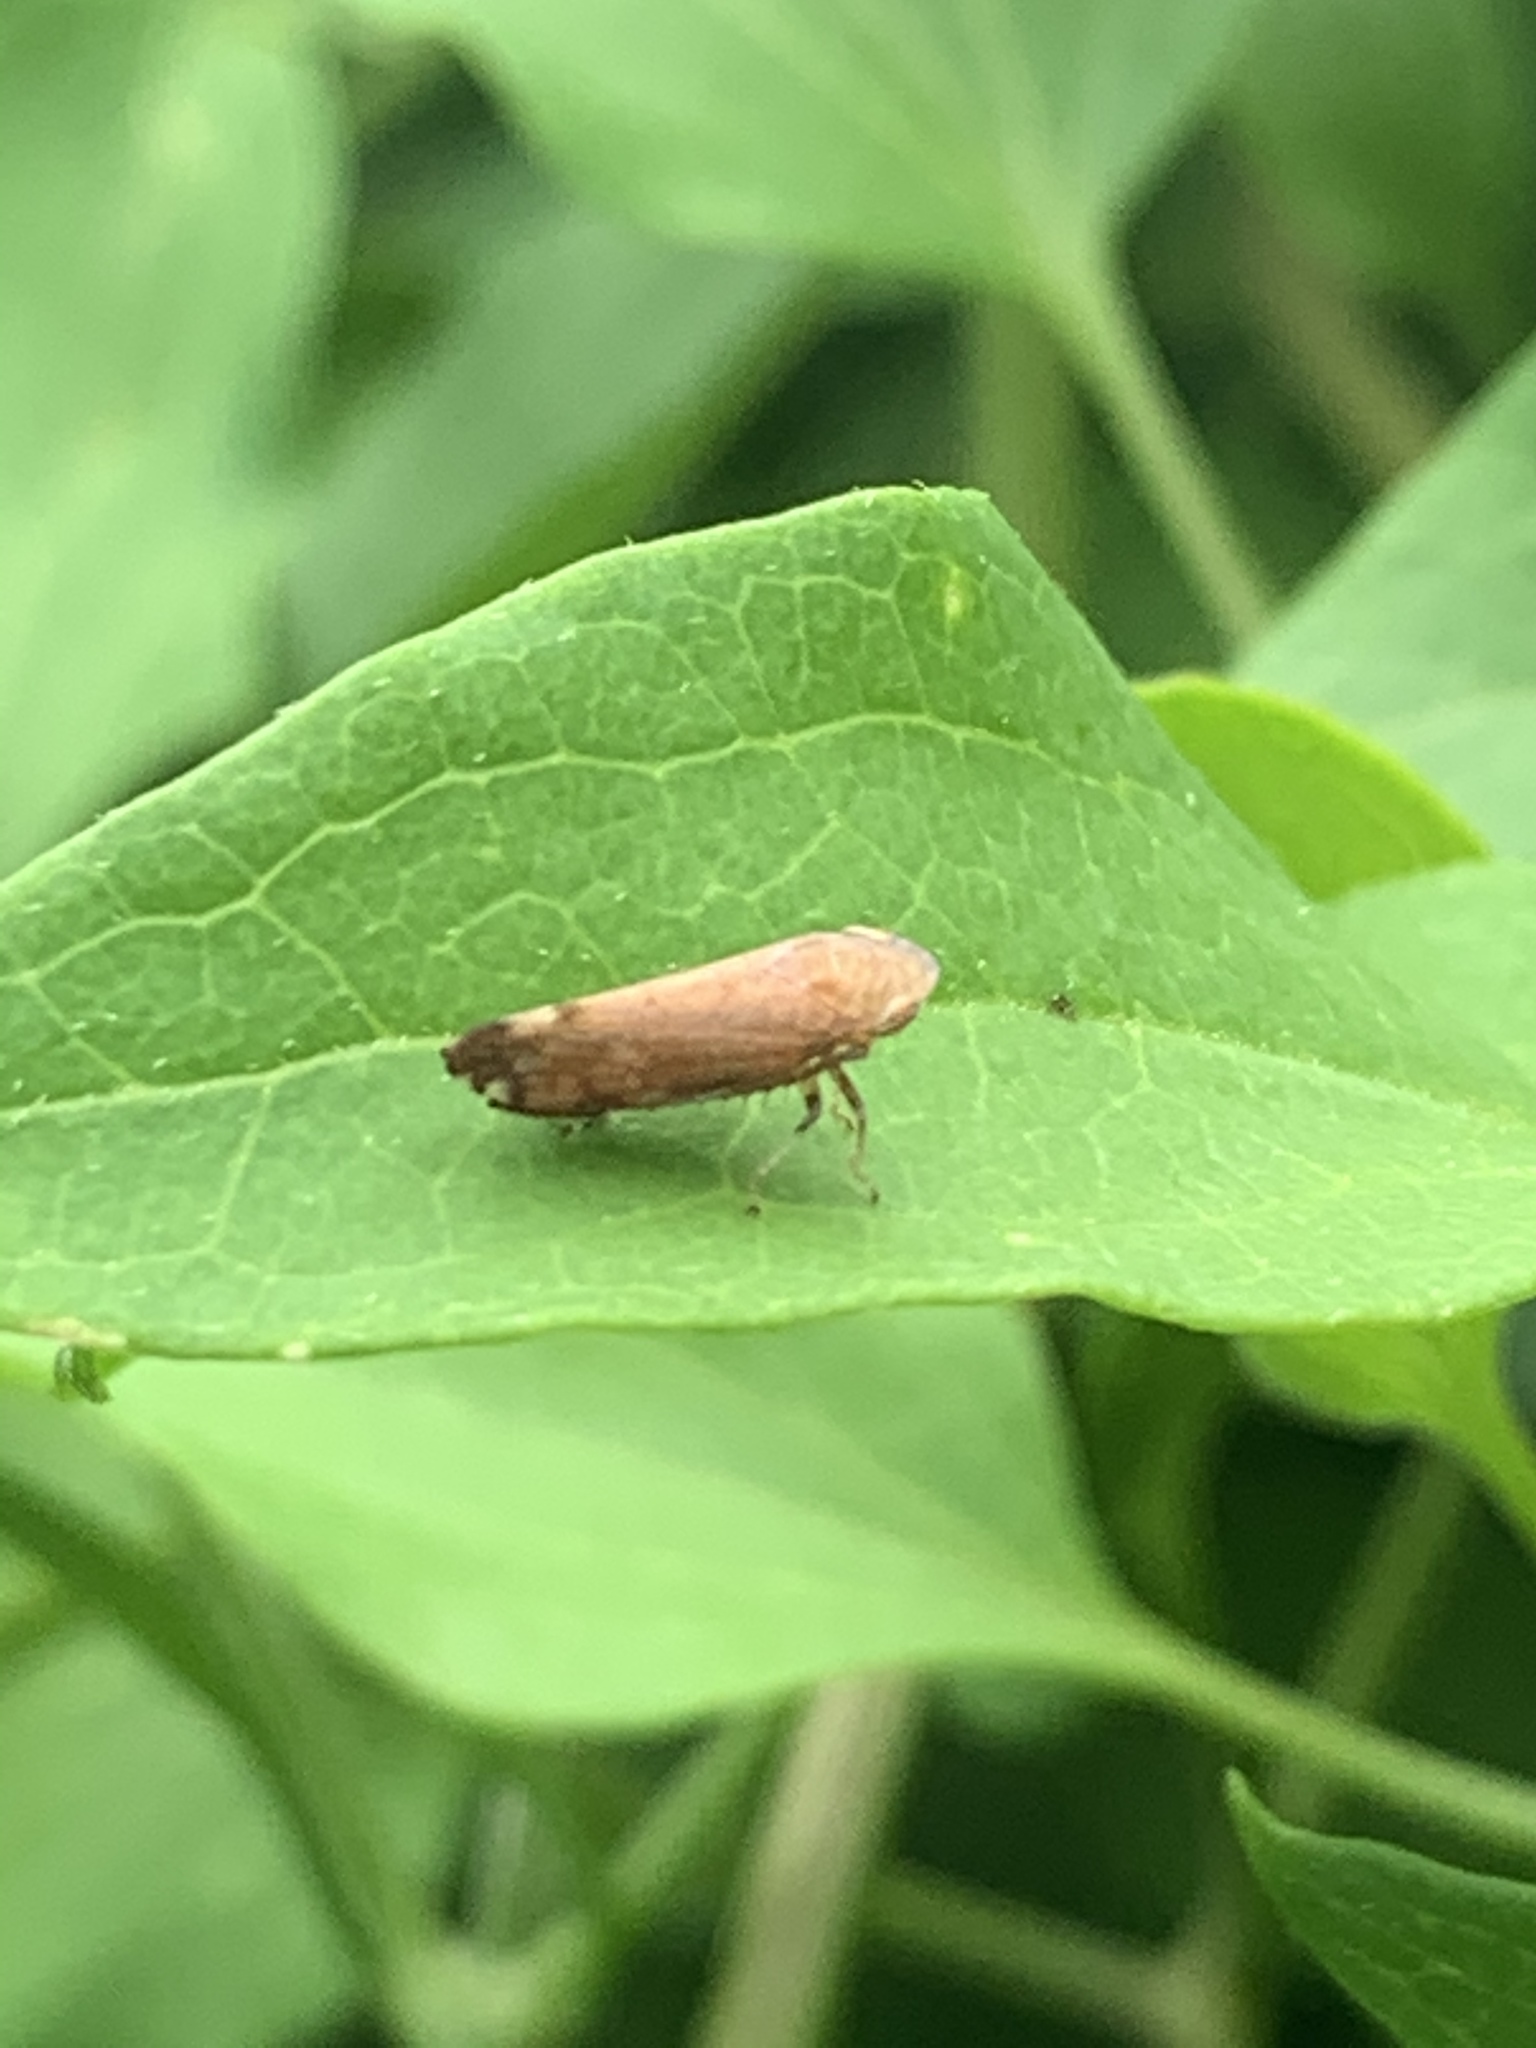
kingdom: Animalia
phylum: Arthropoda
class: Insecta
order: Hemiptera
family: Cicadellidae
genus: Fieberiella
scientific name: Fieberiella florii
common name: Flor’s leafhopper
